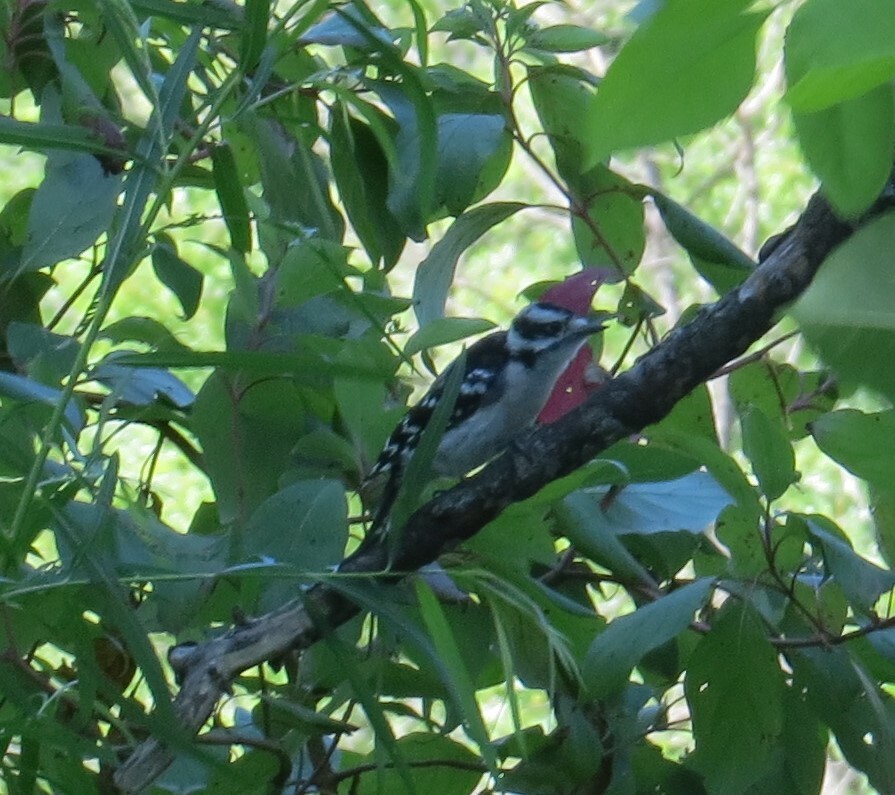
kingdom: Animalia
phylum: Chordata
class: Aves
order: Piciformes
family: Picidae
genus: Dryobates
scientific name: Dryobates pubescens
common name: Downy woodpecker
